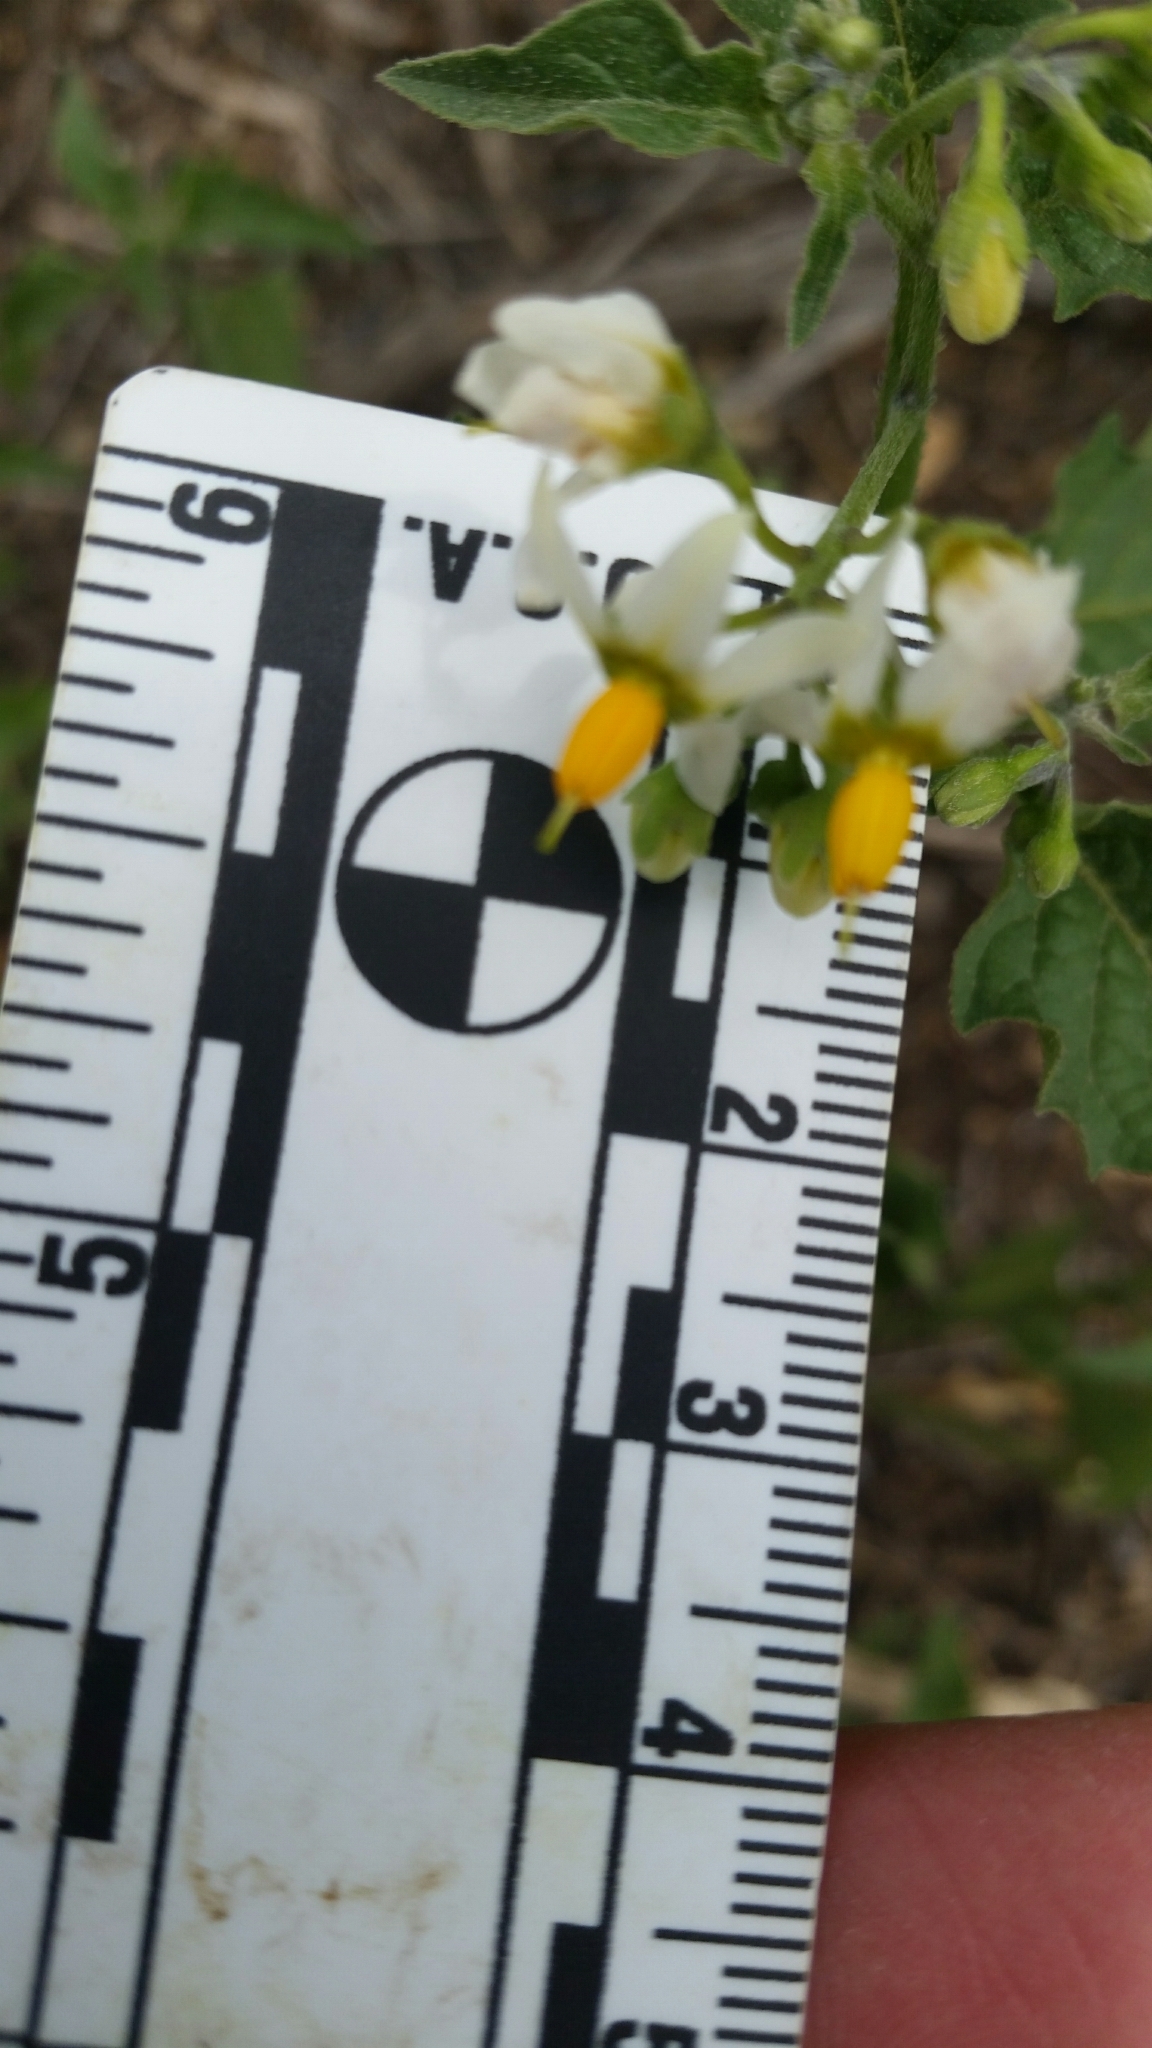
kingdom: Plantae
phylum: Tracheophyta
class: Magnoliopsida
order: Solanales
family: Solanaceae
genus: Solanum
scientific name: Solanum douglasii
